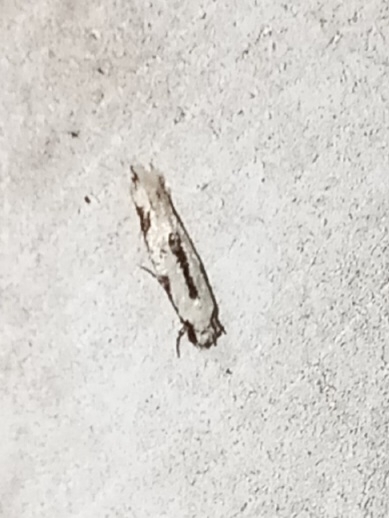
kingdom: Animalia
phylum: Arthropoda
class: Insecta
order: Lepidoptera
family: Meessiidae
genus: Mea
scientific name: Mea bipunctella
